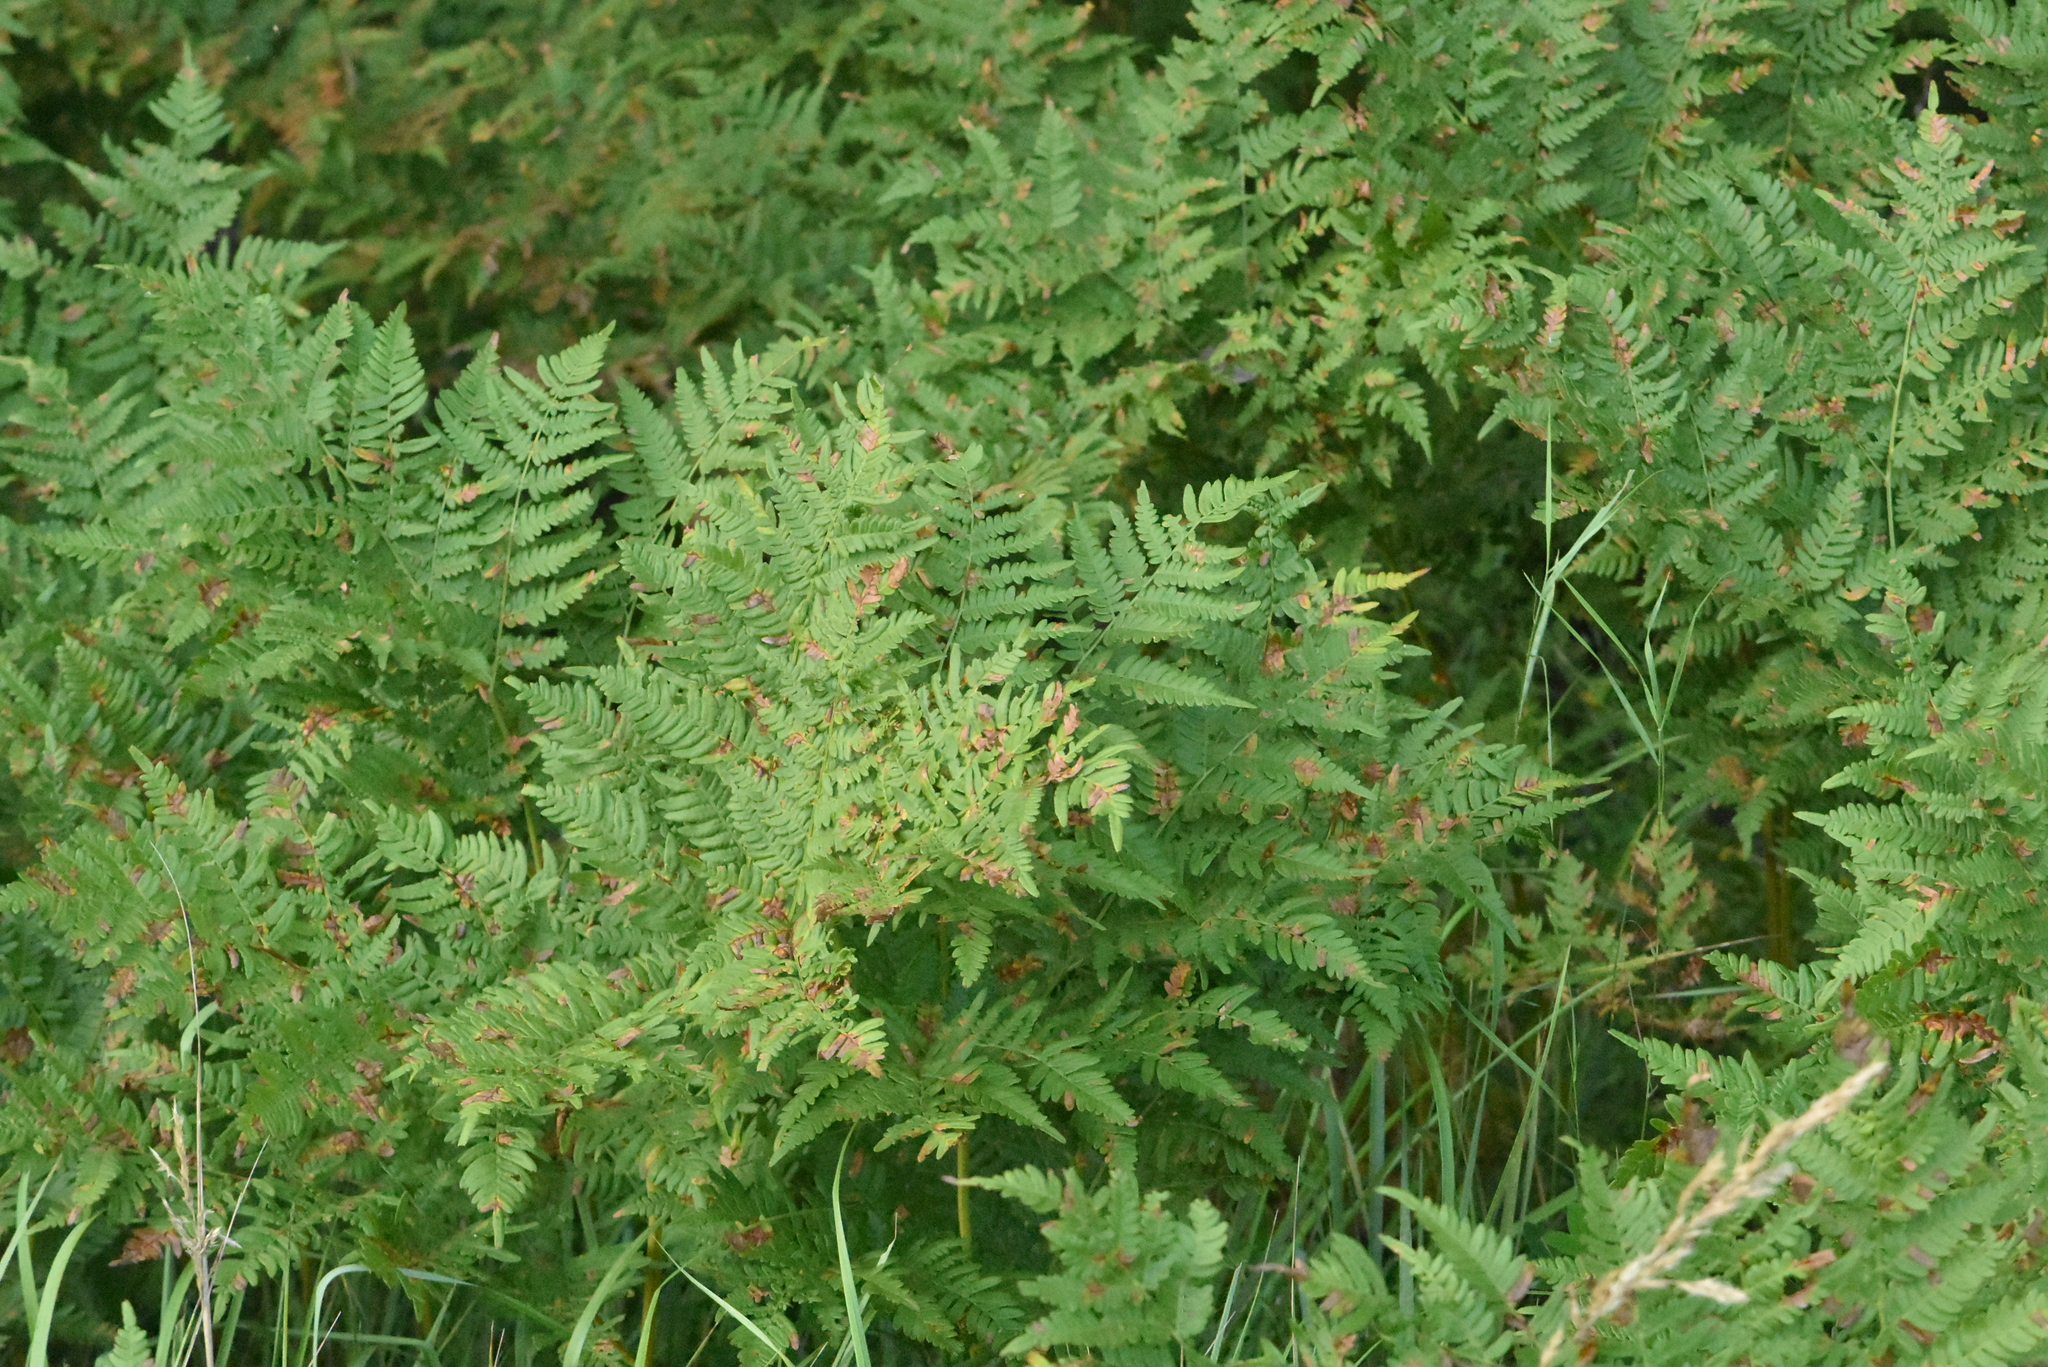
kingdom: Plantae
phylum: Tracheophyta
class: Polypodiopsida
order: Polypodiales
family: Dennstaedtiaceae
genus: Pteridium
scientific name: Pteridium aquilinum
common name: Bracken
